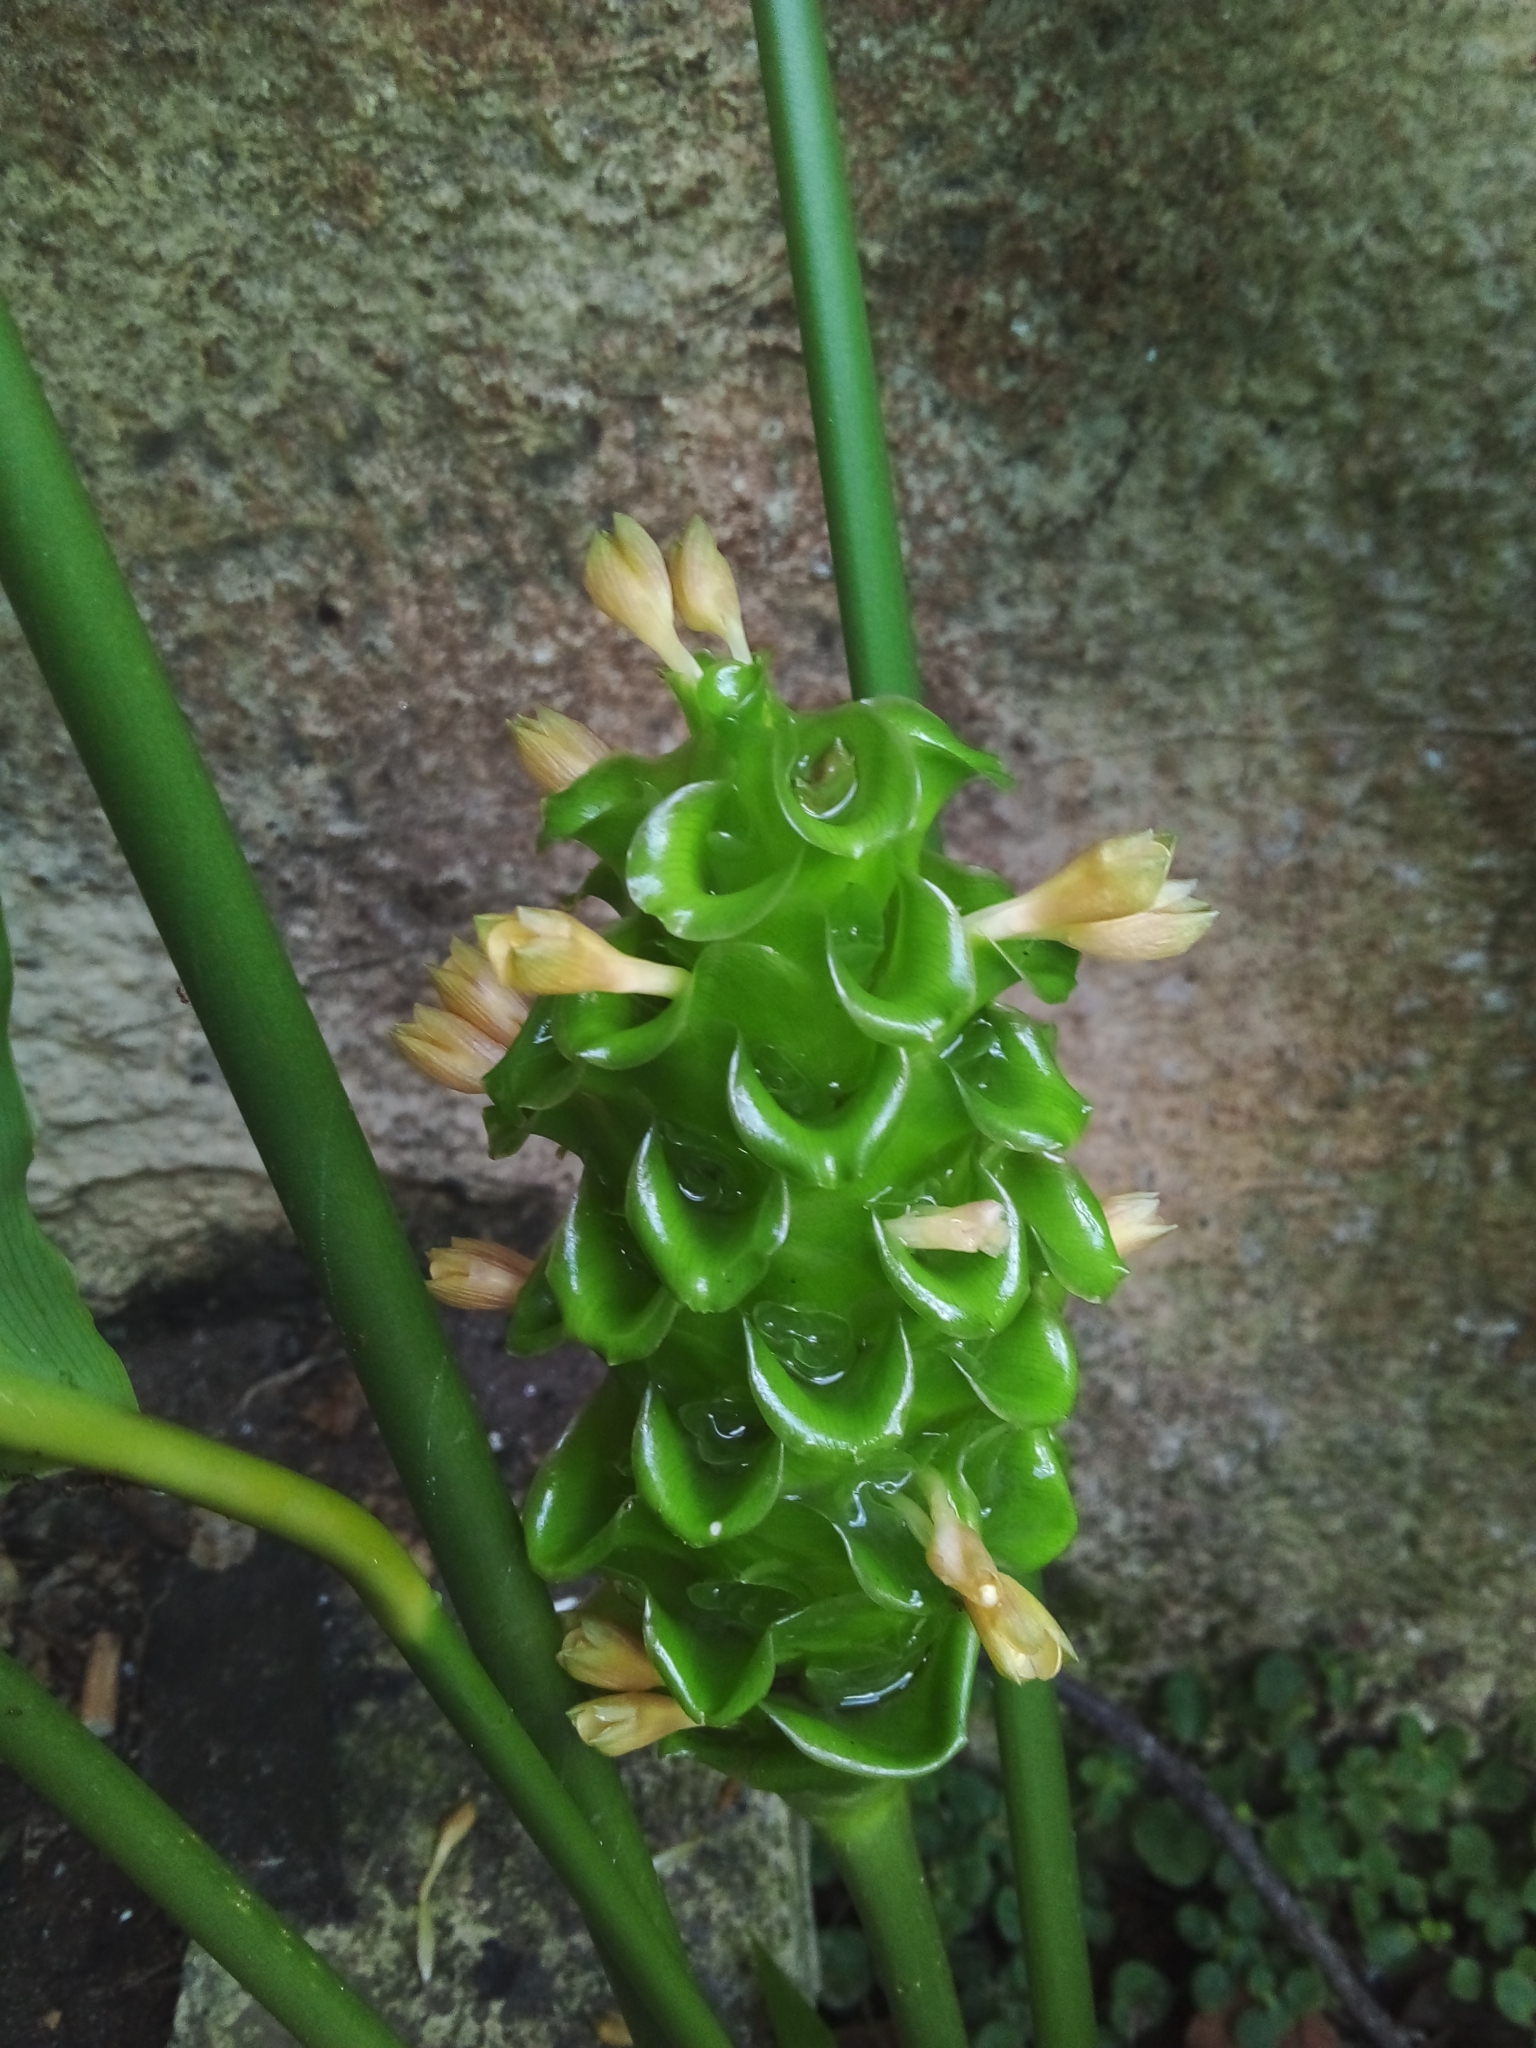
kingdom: Plantae
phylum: Tracheophyta
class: Liliopsida
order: Zingiberales
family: Marantaceae
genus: Goeppertia
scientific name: Goeppertia cylindrica
